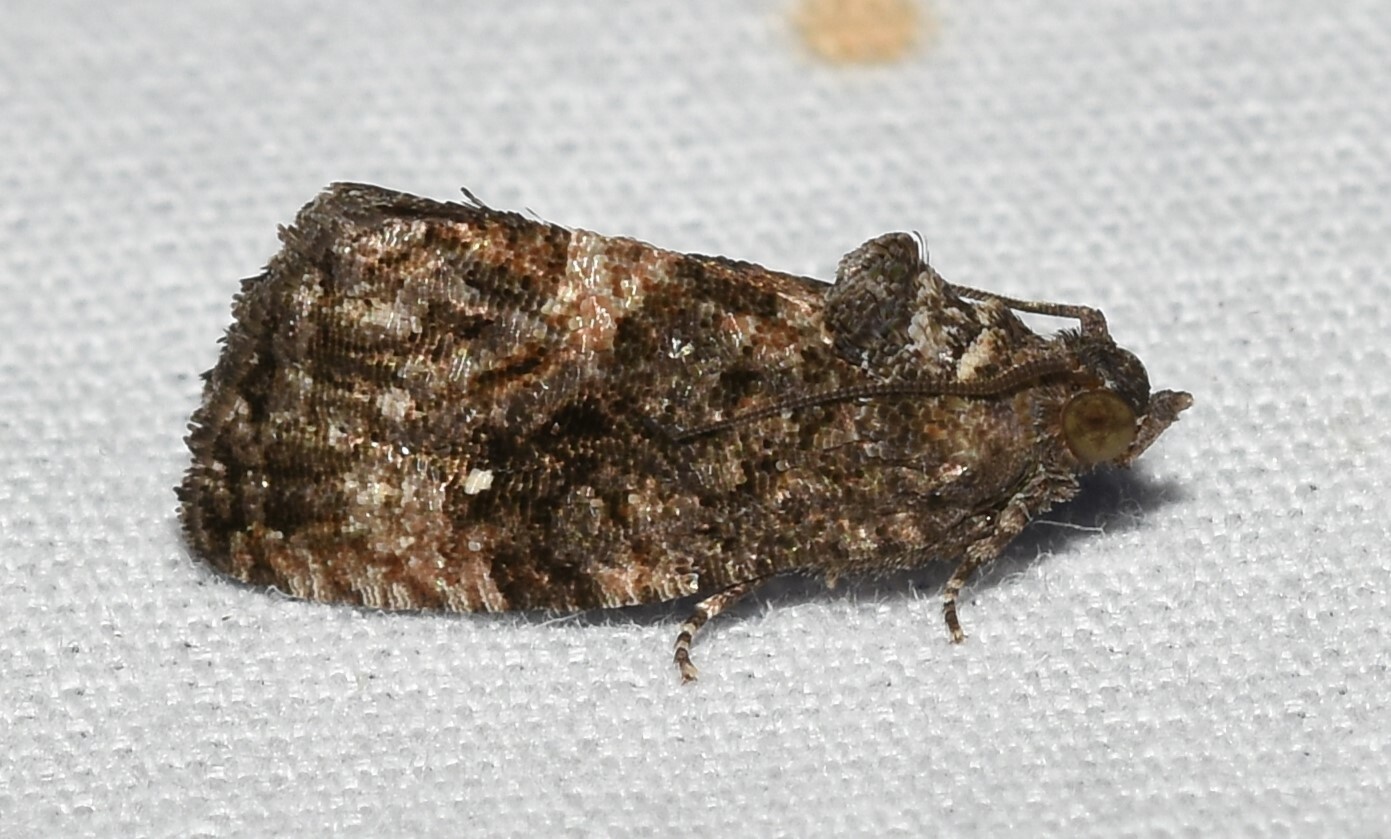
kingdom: Animalia
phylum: Arthropoda
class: Insecta
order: Lepidoptera
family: Tortricidae
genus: Gymnandrosoma
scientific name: Gymnandrosoma punctidiscanum
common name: Dotted ecdytolopha moth
